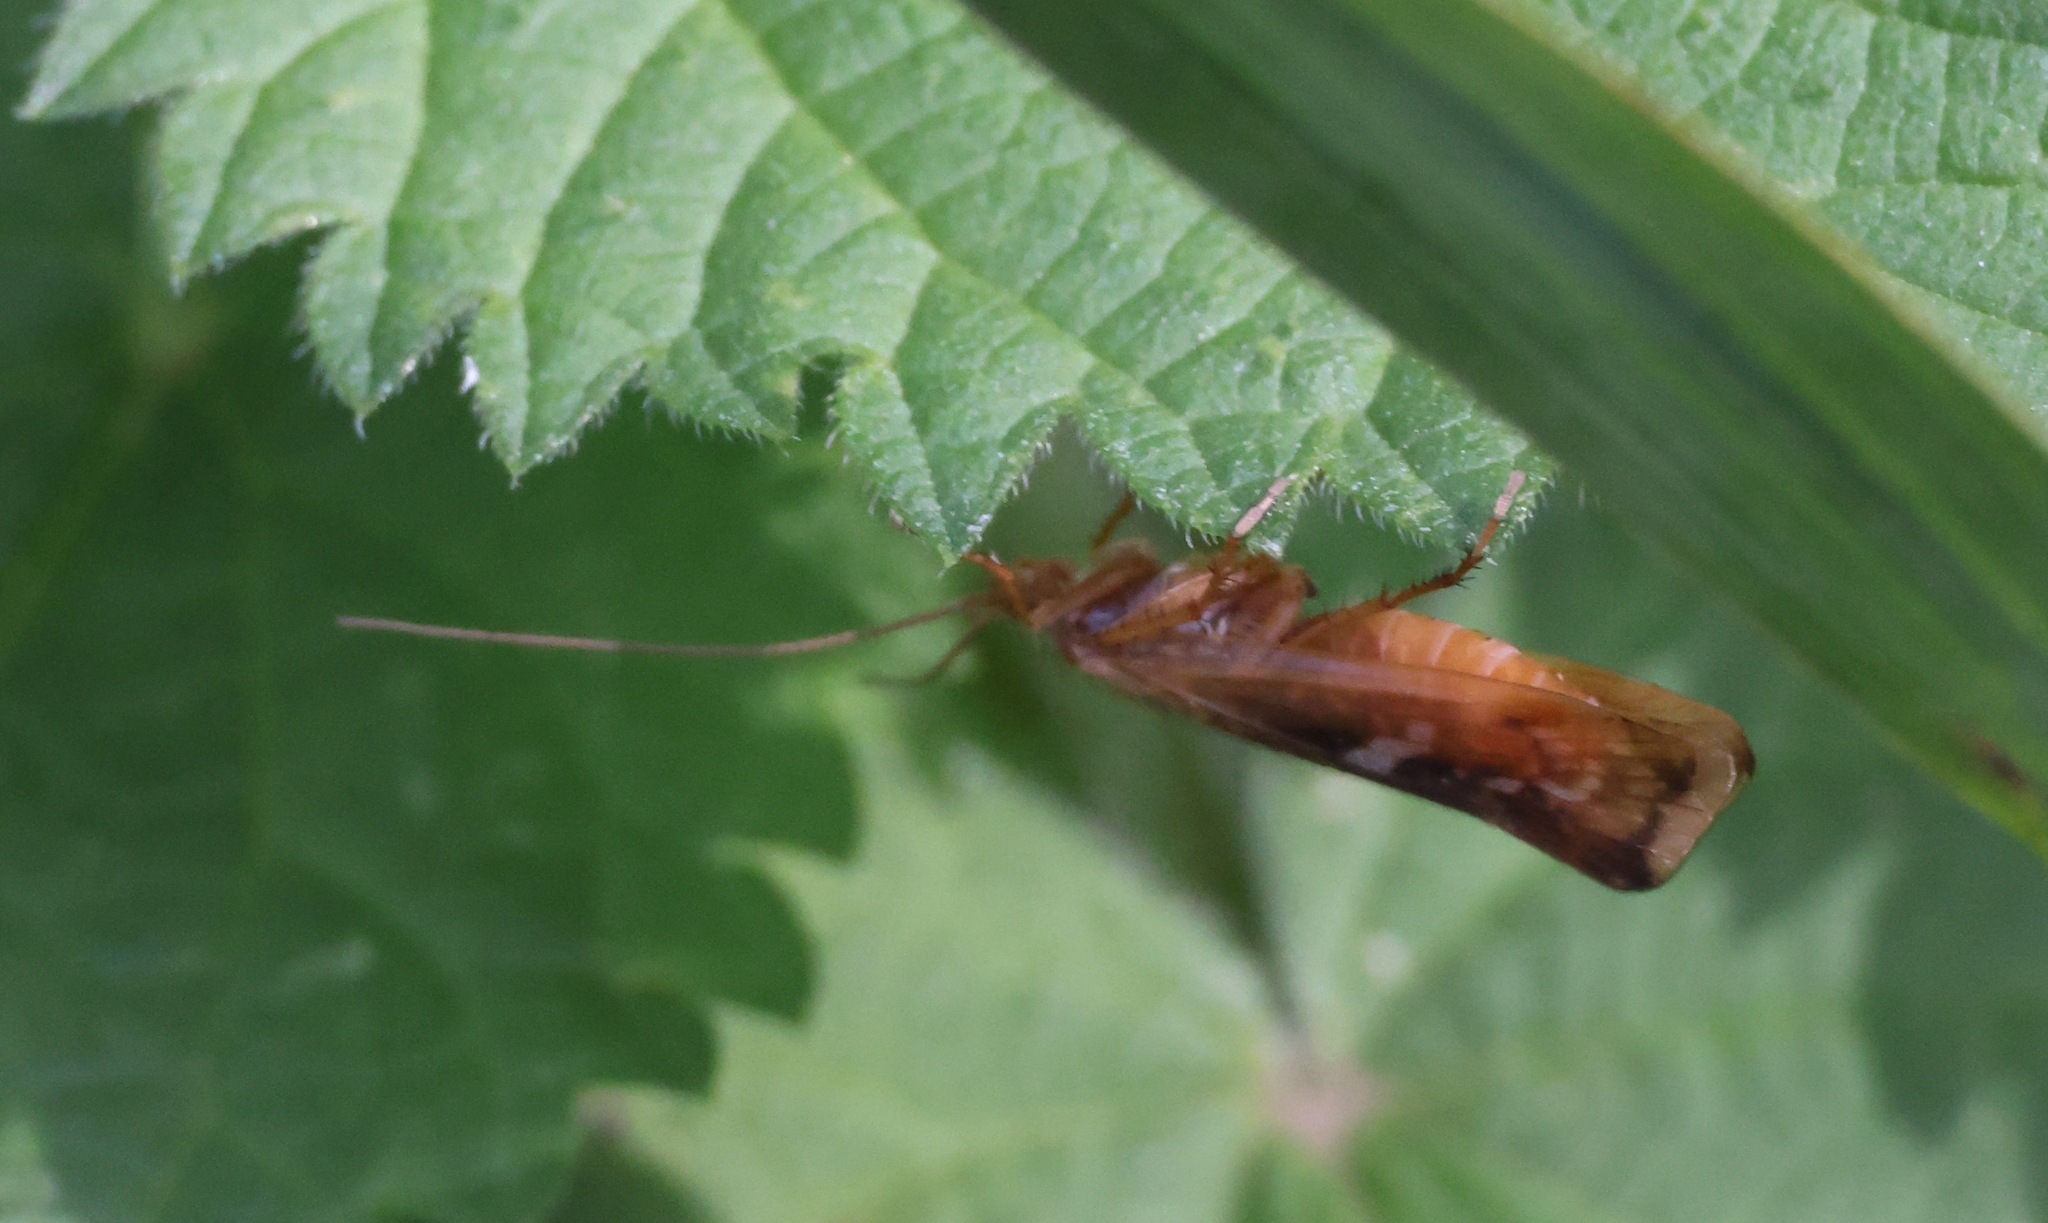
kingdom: Animalia
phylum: Arthropoda
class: Insecta
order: Trichoptera
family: Limnephilidae
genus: Limnephilus
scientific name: Limnephilus lunatus
